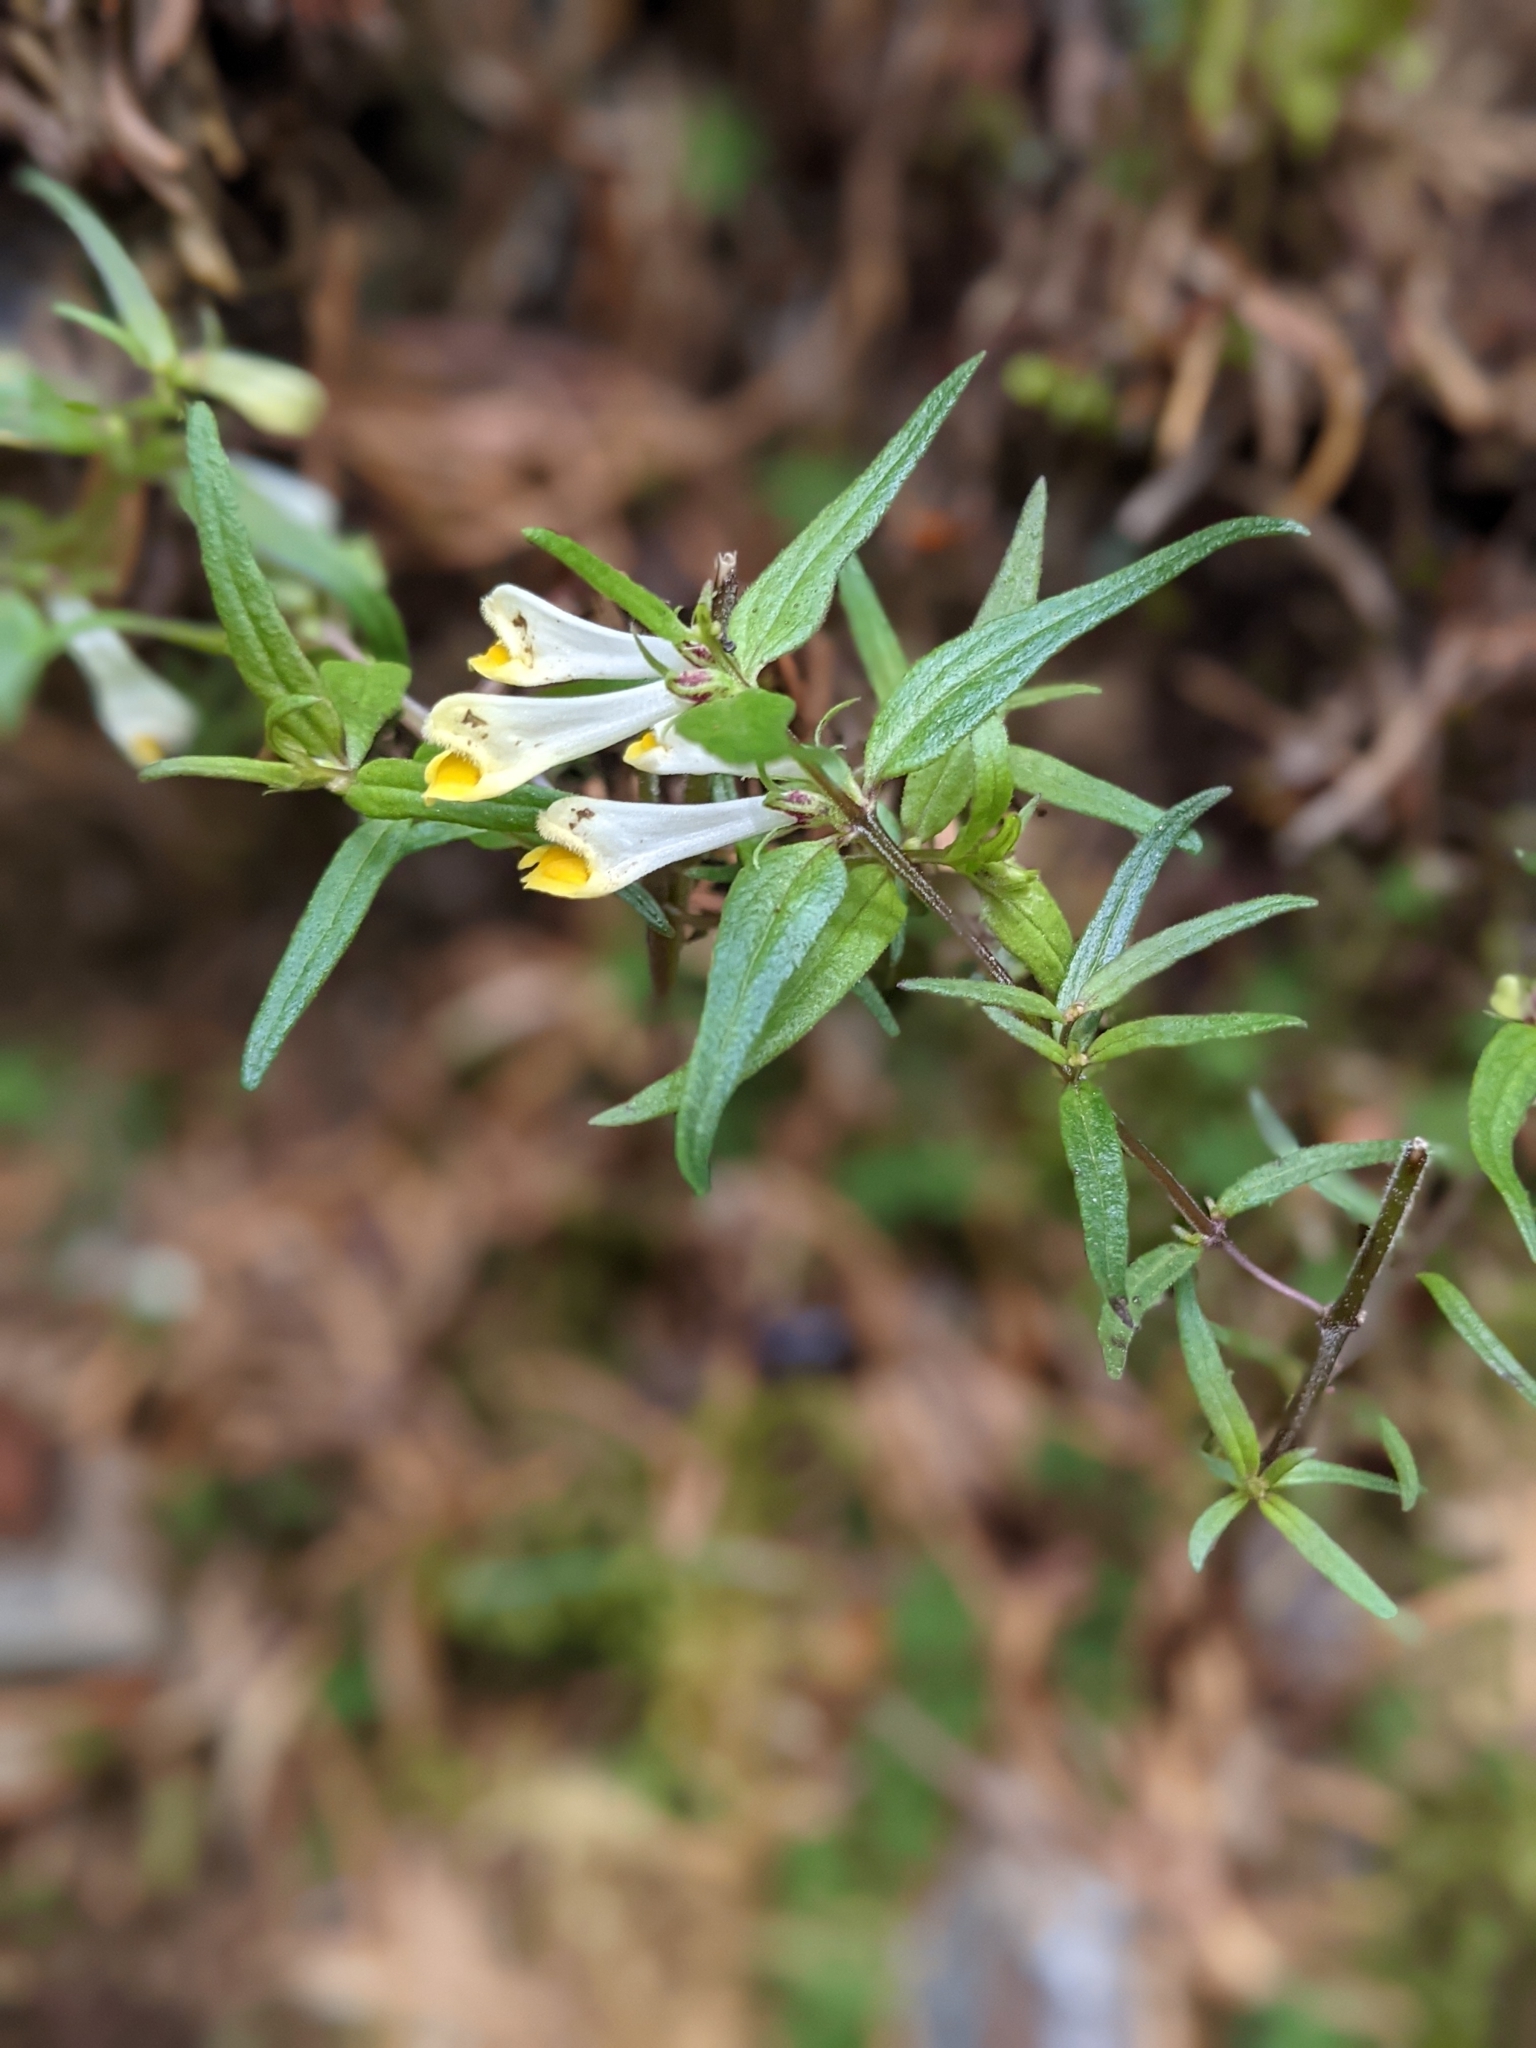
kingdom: Plantae
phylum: Tracheophyta
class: Magnoliopsida
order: Lamiales
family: Orobanchaceae
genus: Melampyrum
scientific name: Melampyrum pratense
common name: Common cow-wheat
